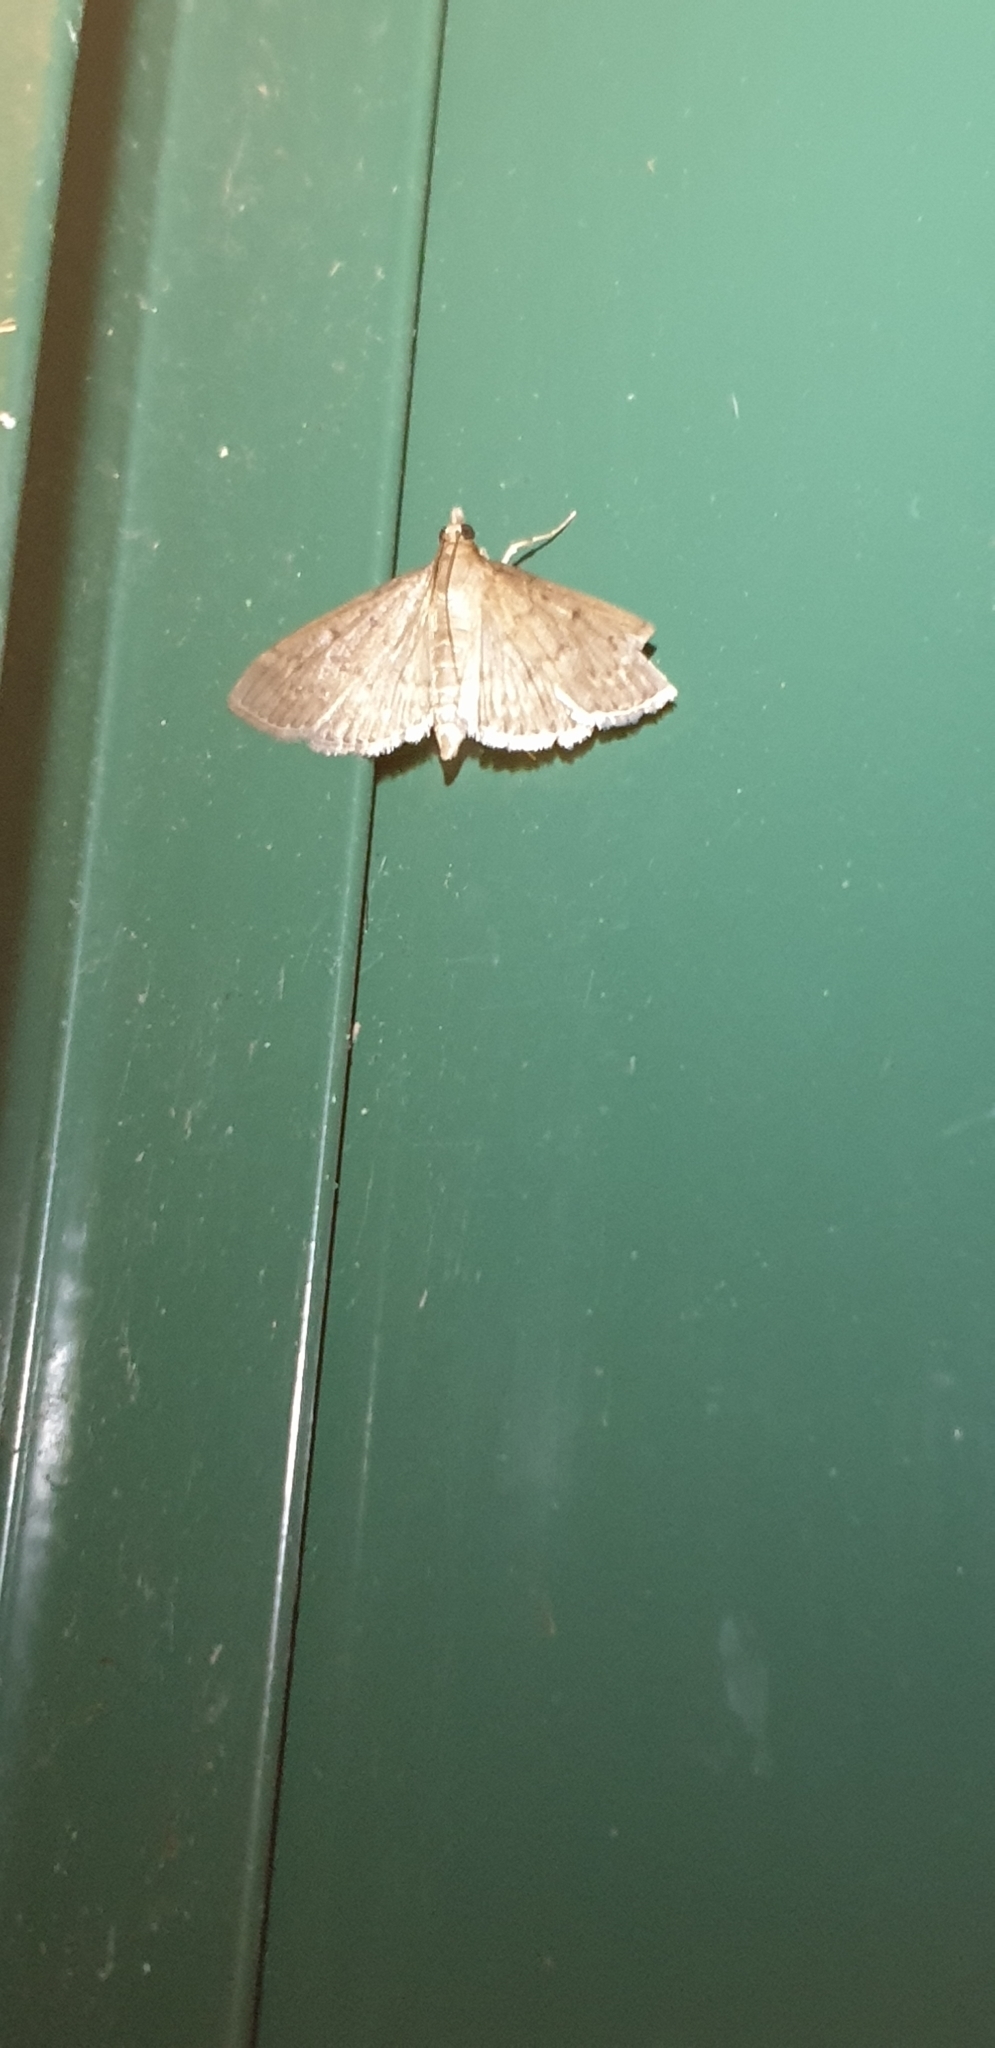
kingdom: Animalia
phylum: Arthropoda
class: Insecta
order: Lepidoptera
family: Crambidae
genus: Herpetogramma
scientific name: Herpetogramma licarsisalis
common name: Grass webworm
